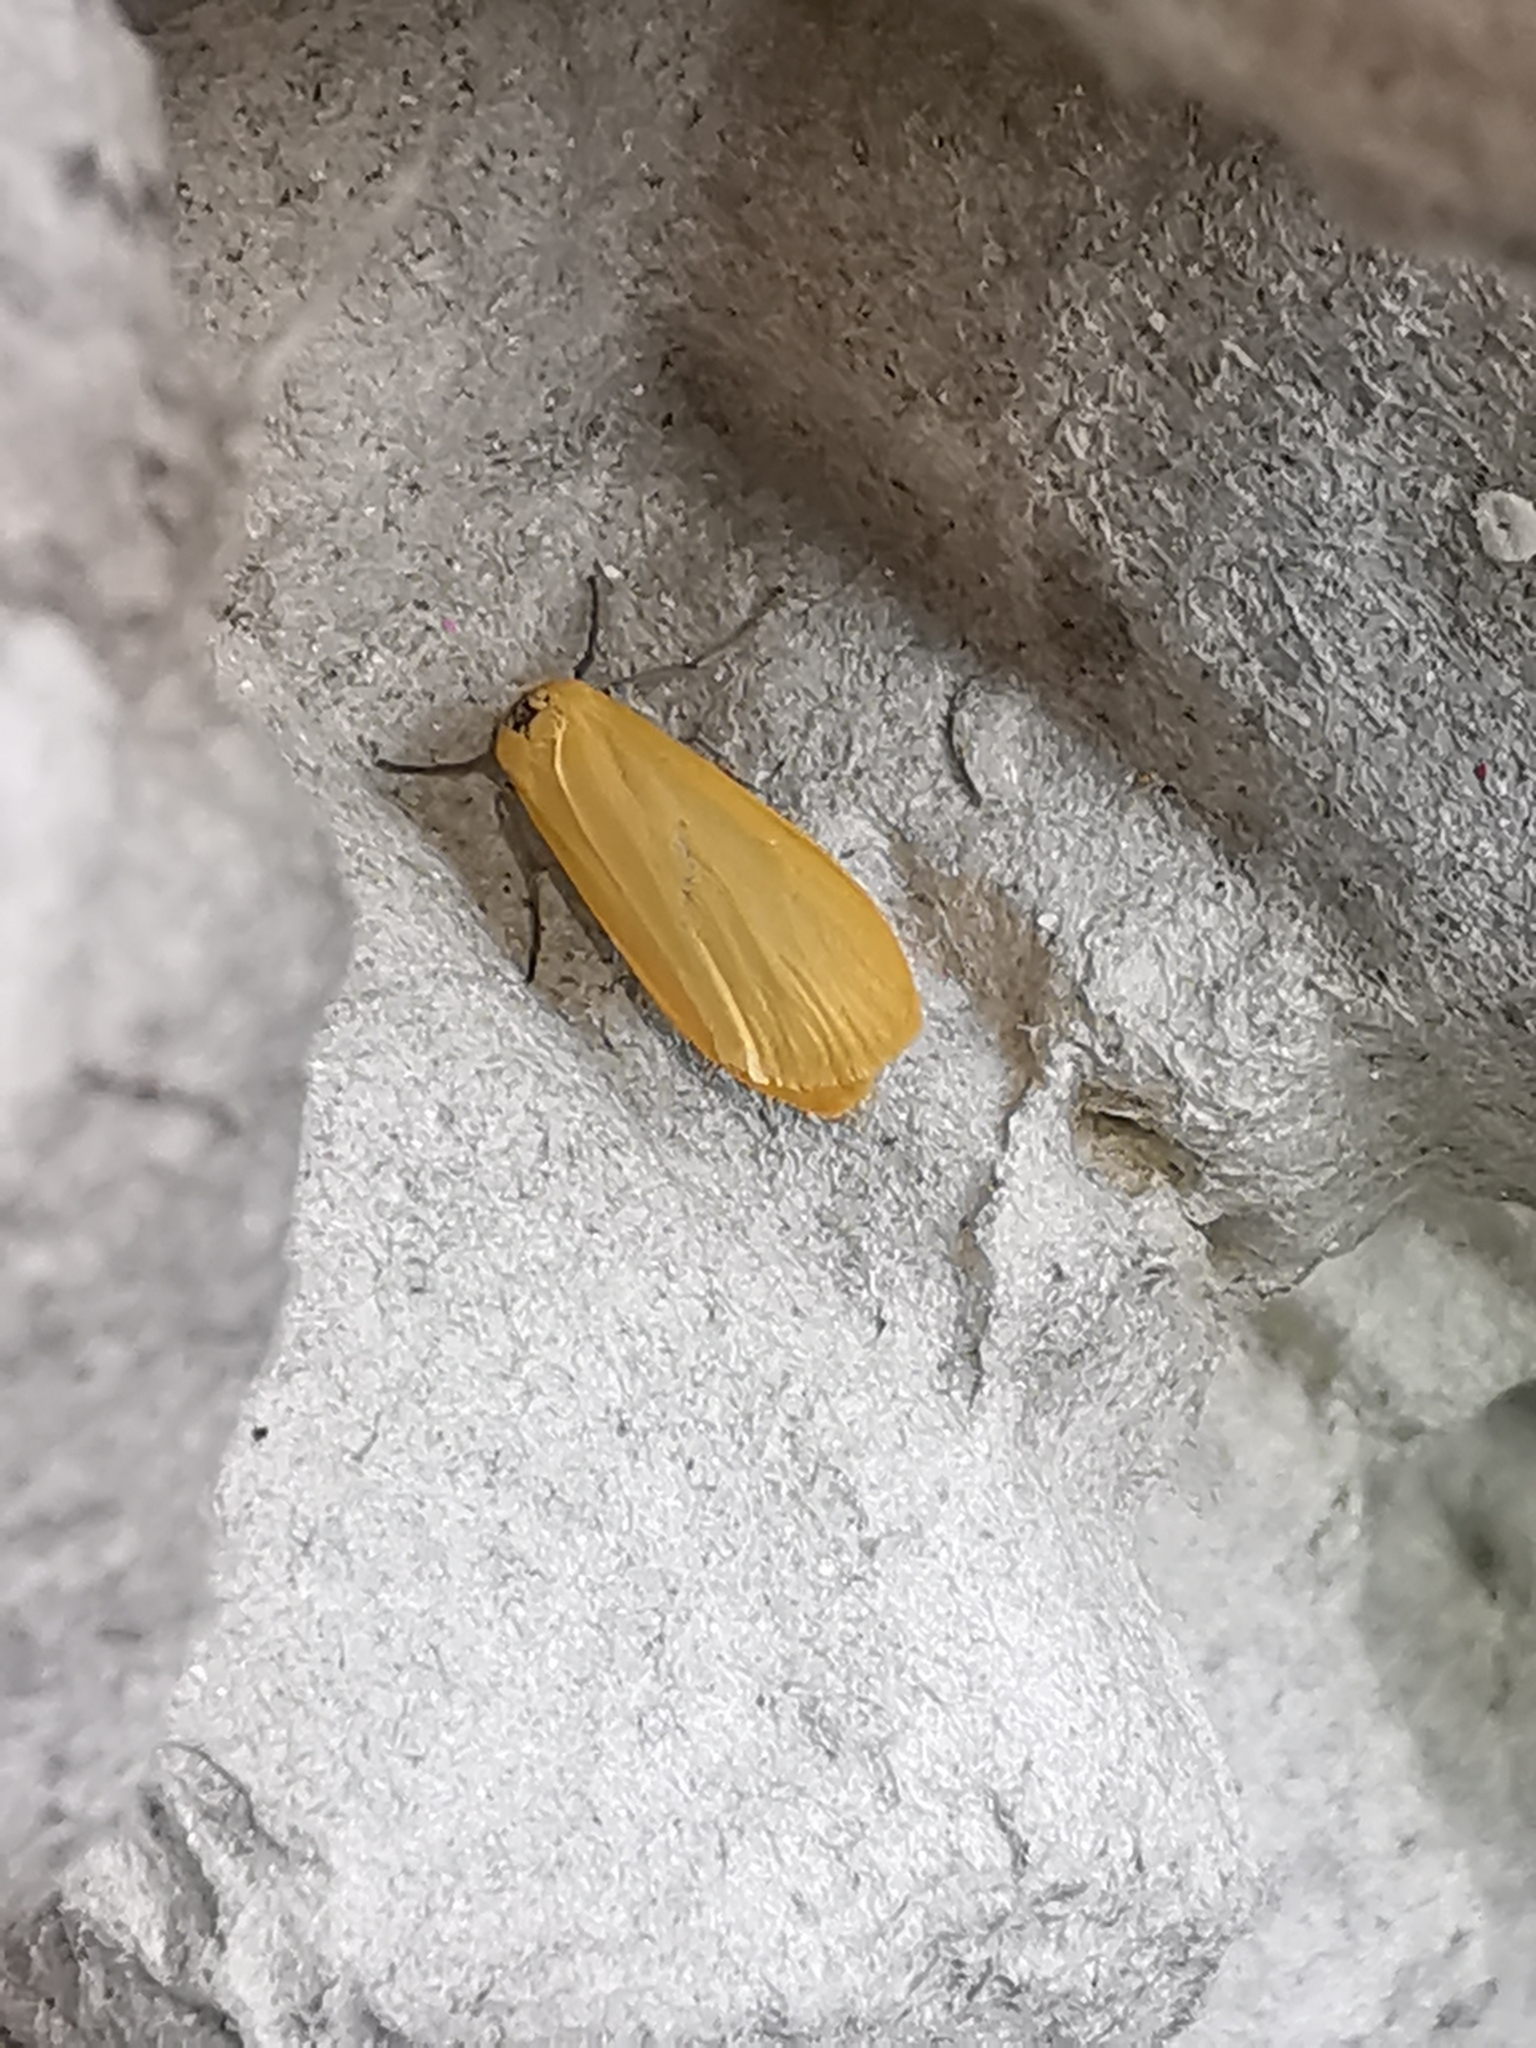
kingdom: Animalia
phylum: Arthropoda
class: Insecta
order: Lepidoptera
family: Erebidae
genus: Wittia
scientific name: Wittia sororcula
